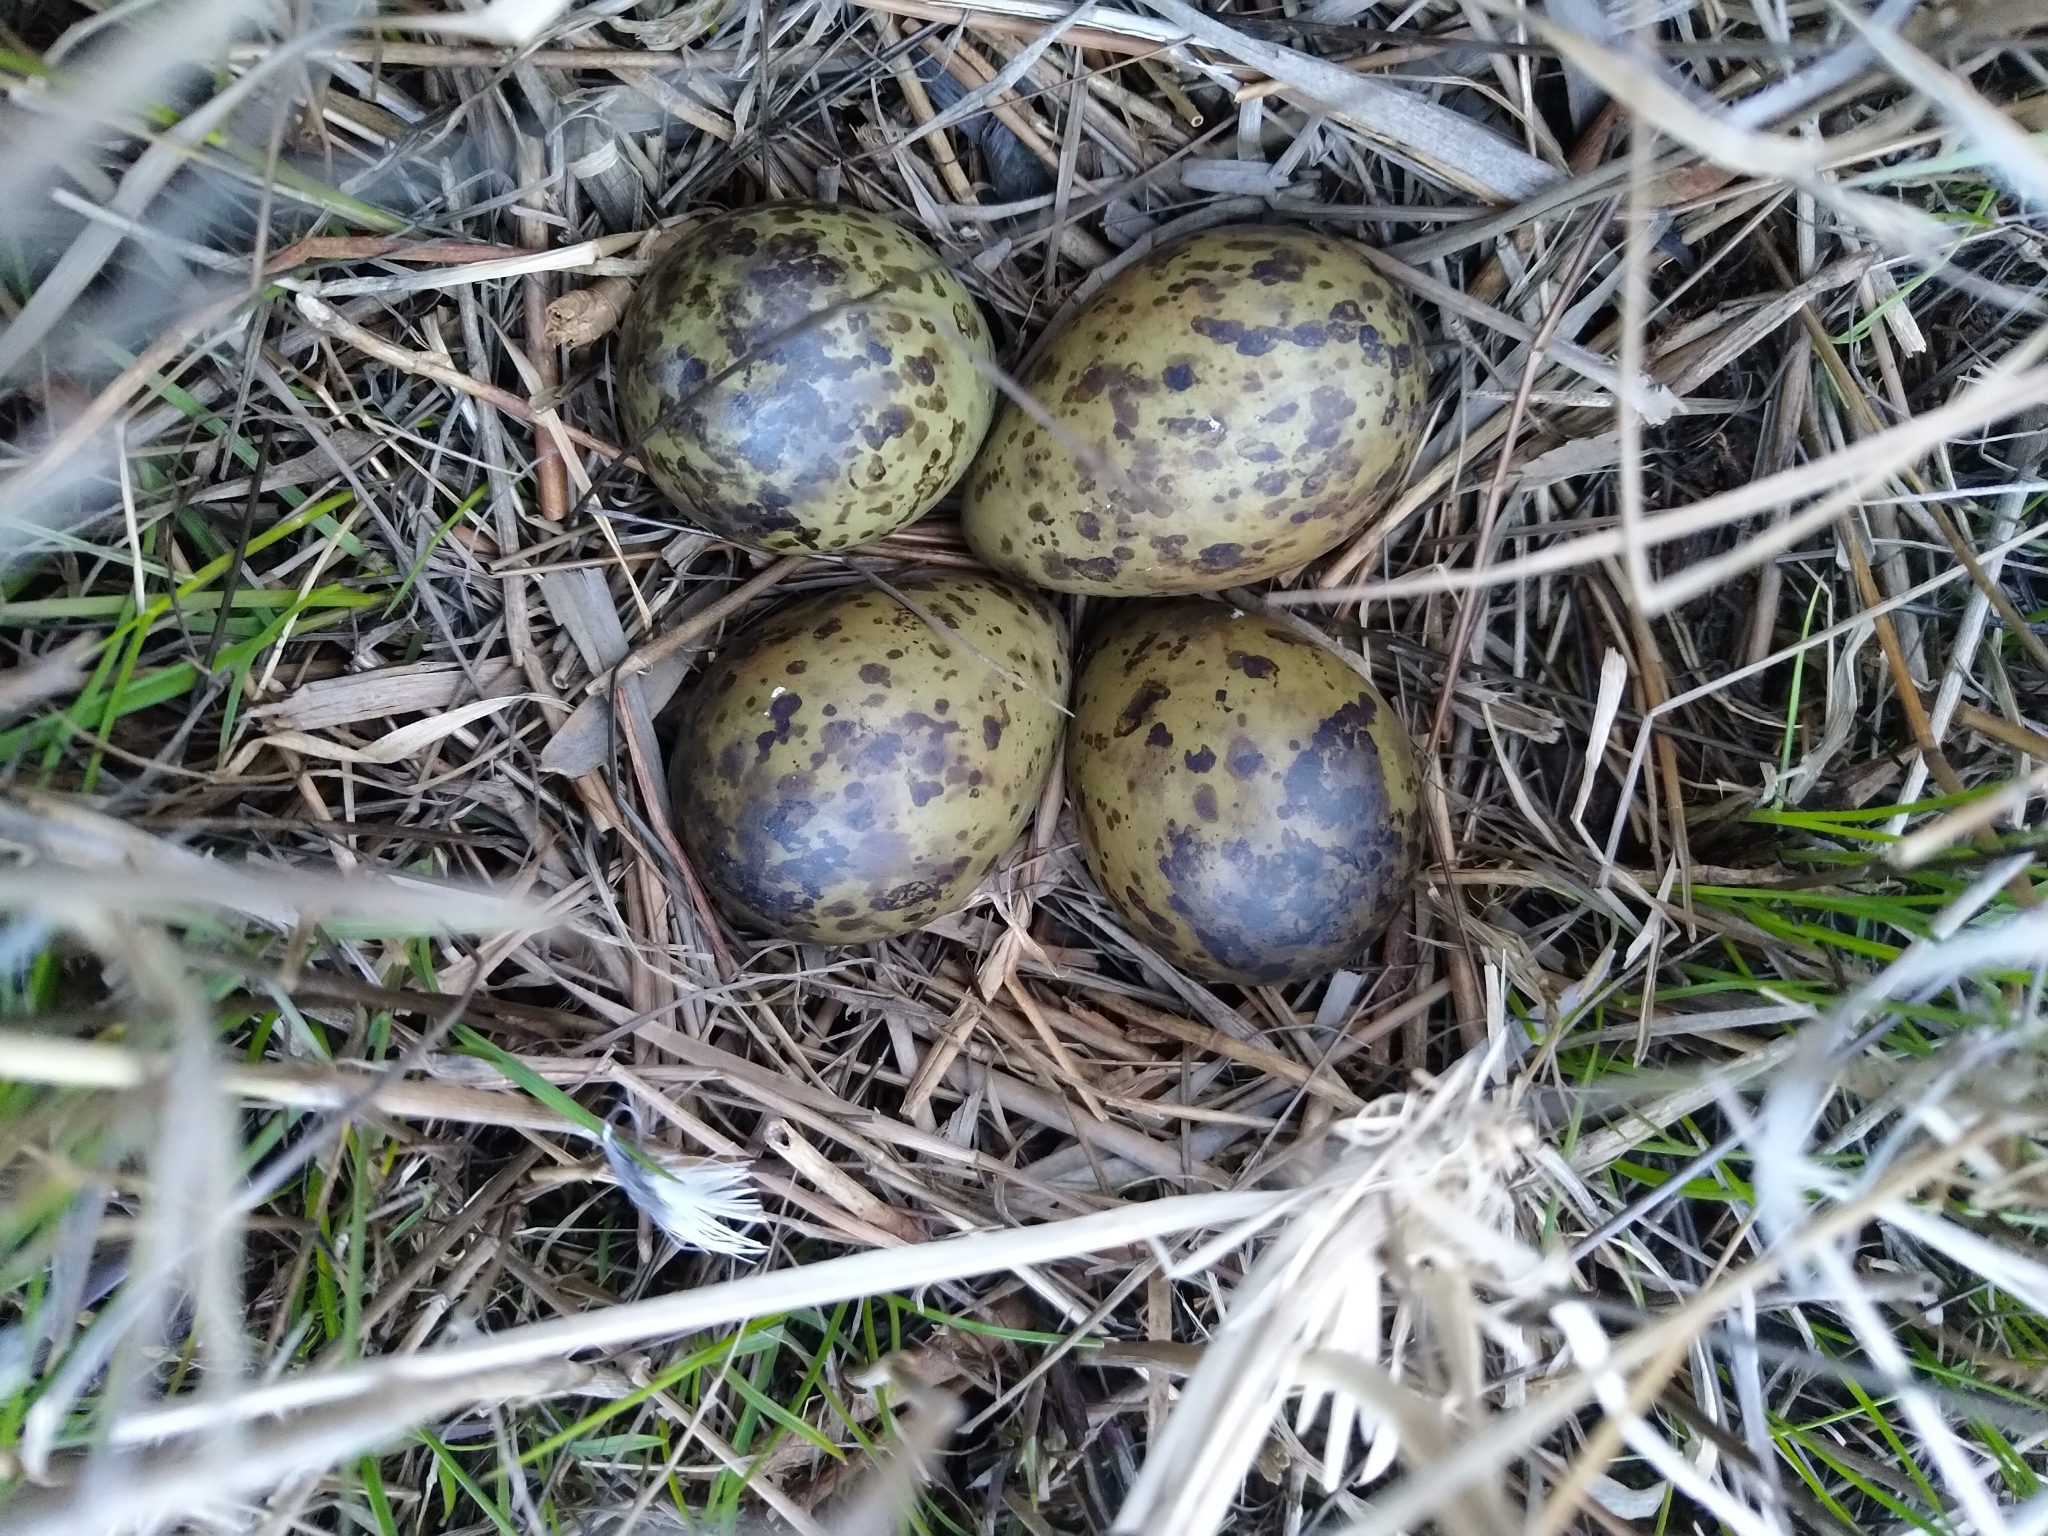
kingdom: Animalia
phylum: Chordata
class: Aves
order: Charadriiformes
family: Scolopacidae
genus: Calidris
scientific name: Calidris pugnax
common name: Ruff
